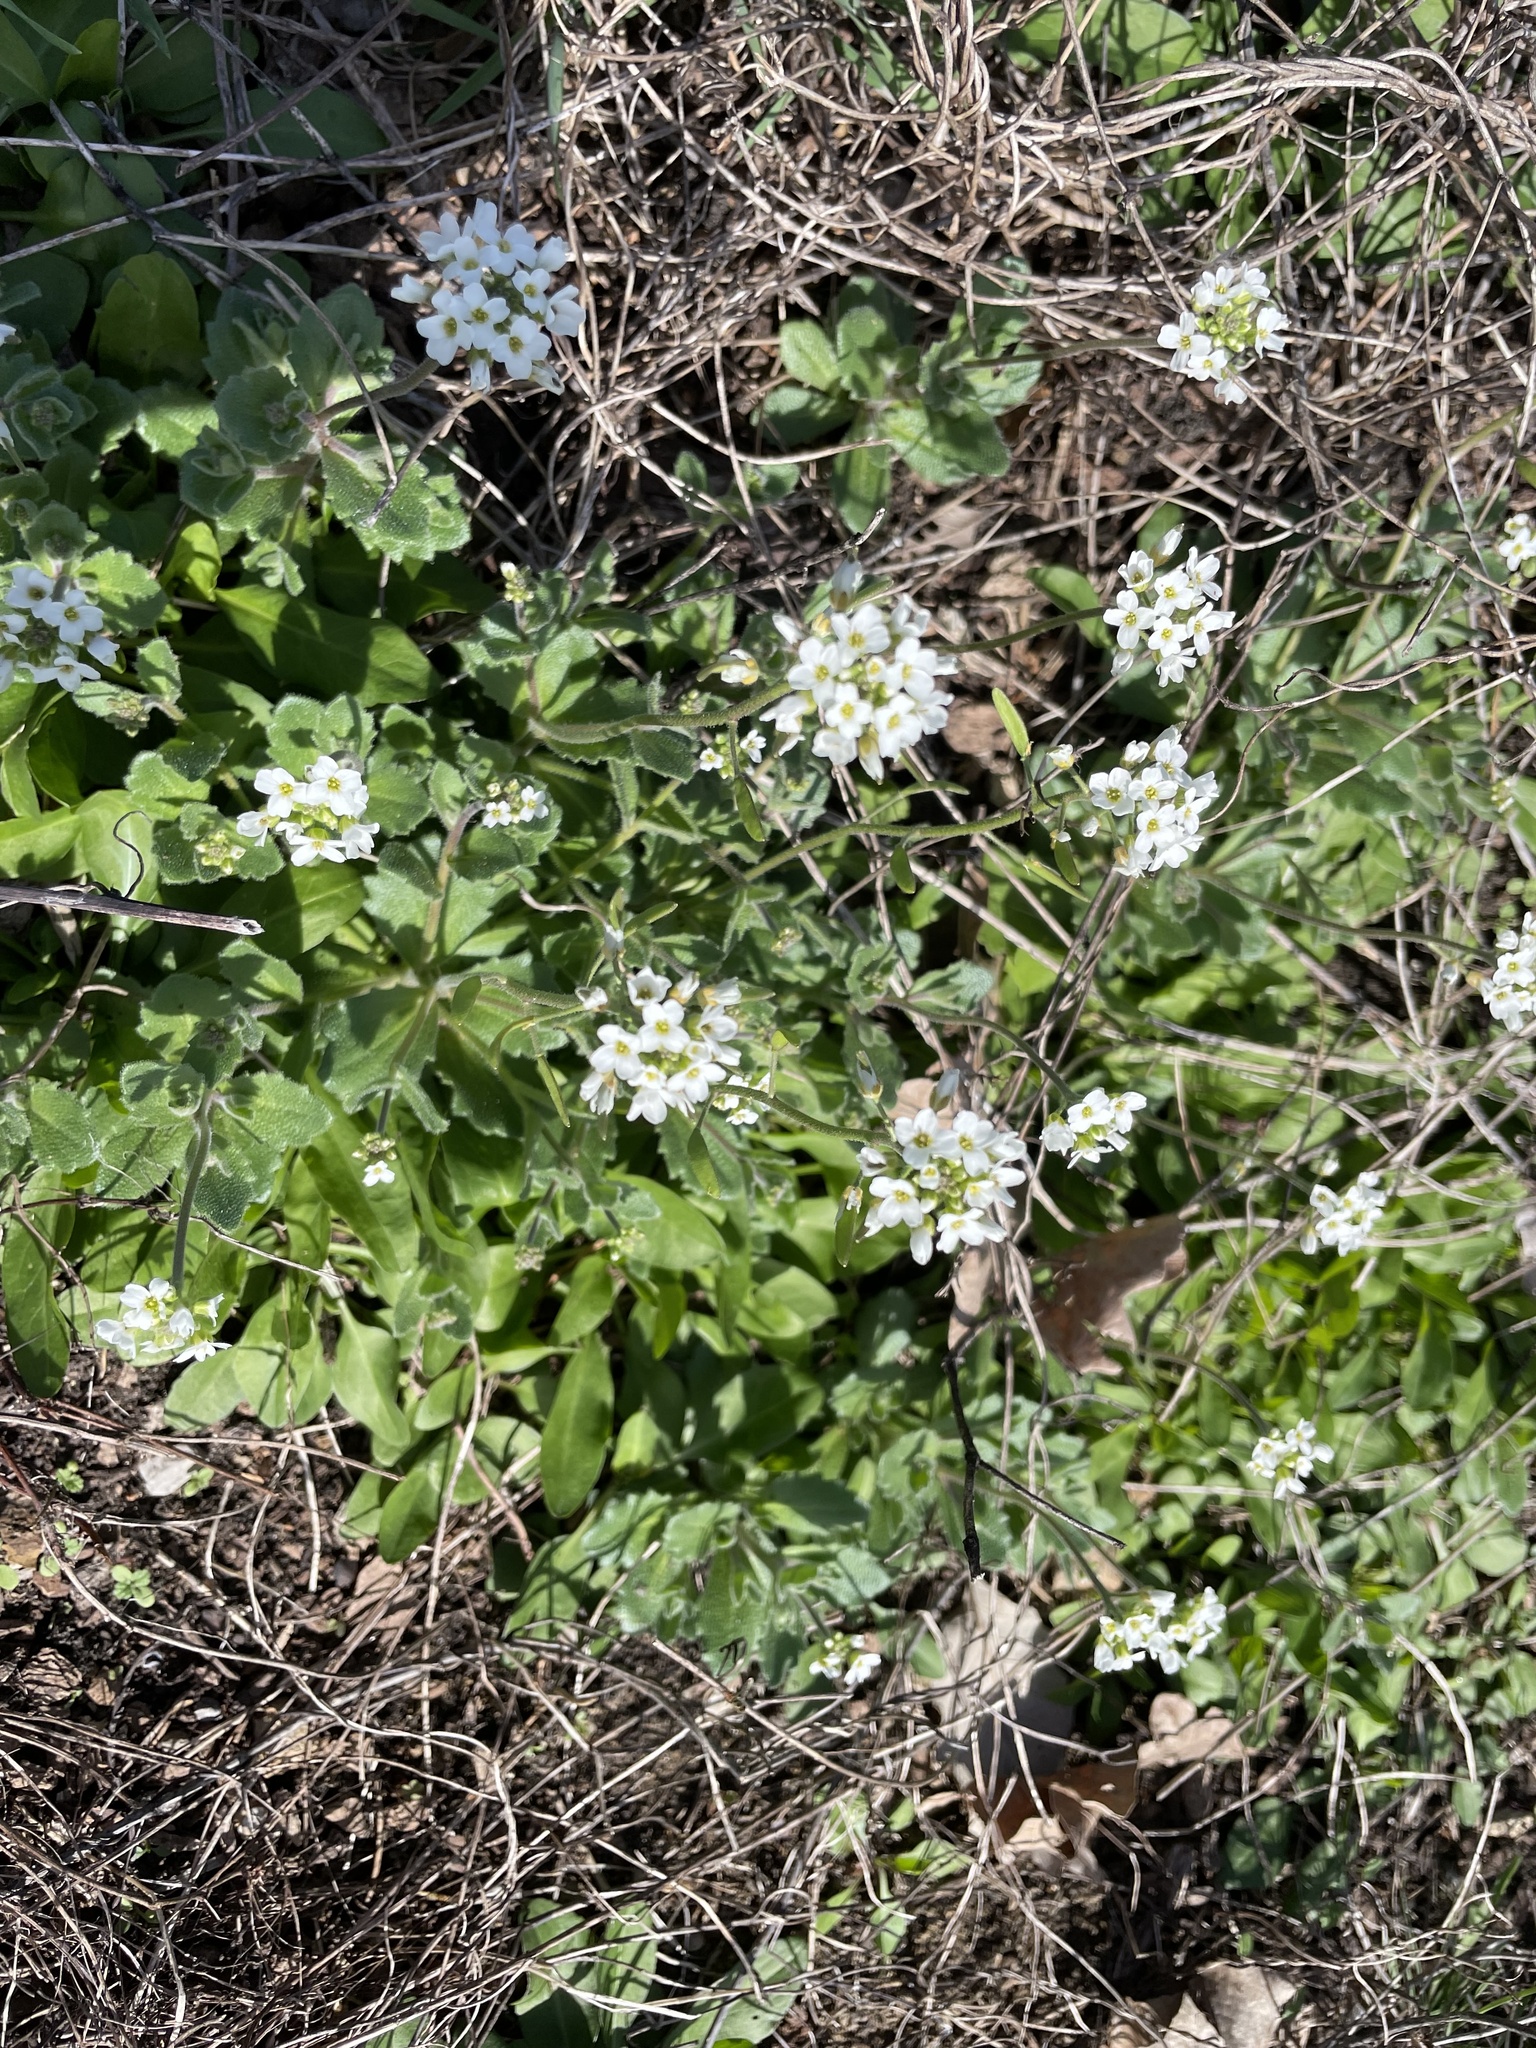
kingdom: Plantae
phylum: Tracheophyta
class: Magnoliopsida
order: Brassicales
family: Brassicaceae
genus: Tomostima
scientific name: Tomostima cuneifolia
